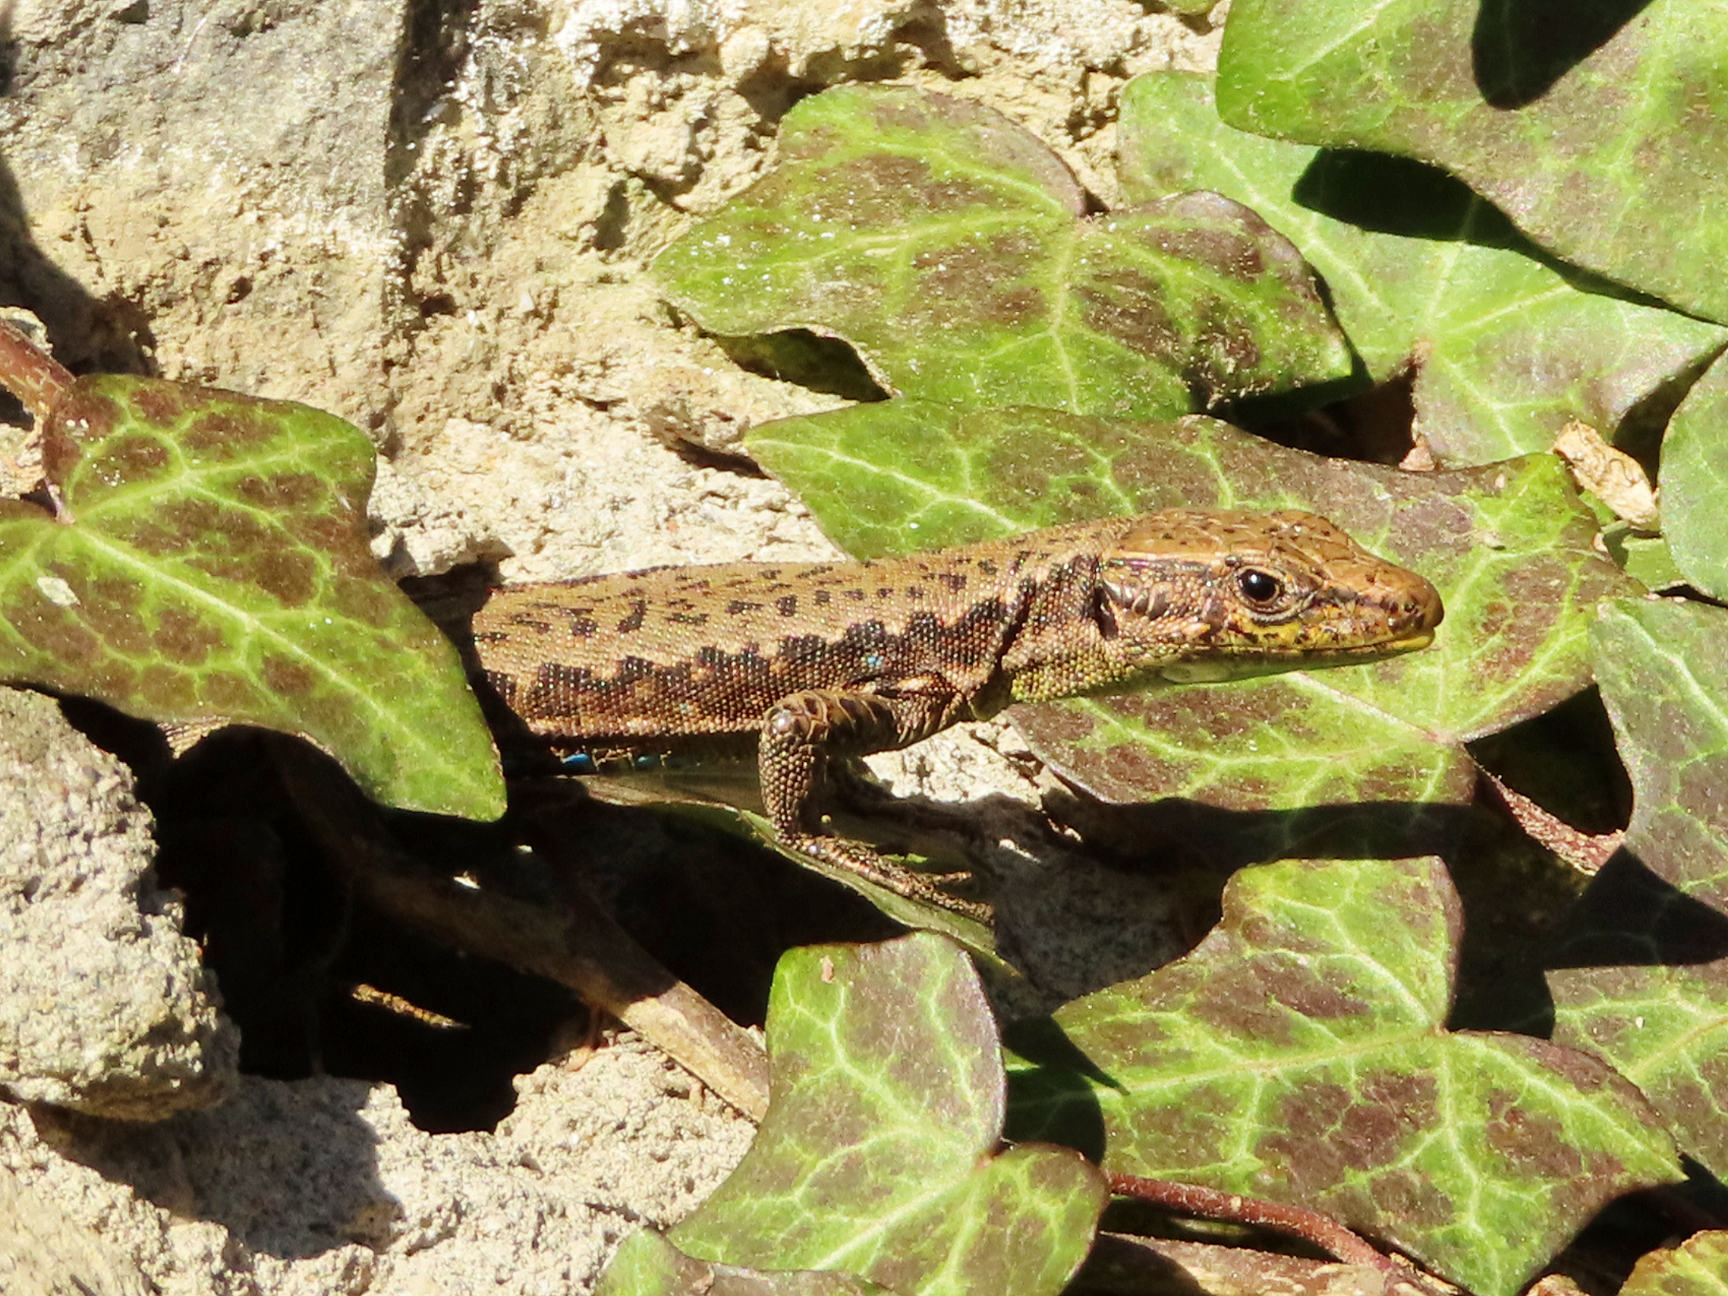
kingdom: Animalia
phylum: Chordata
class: Squamata
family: Lacertidae
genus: Darevskia
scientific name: Darevskia mixta
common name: Ajarian lizard
